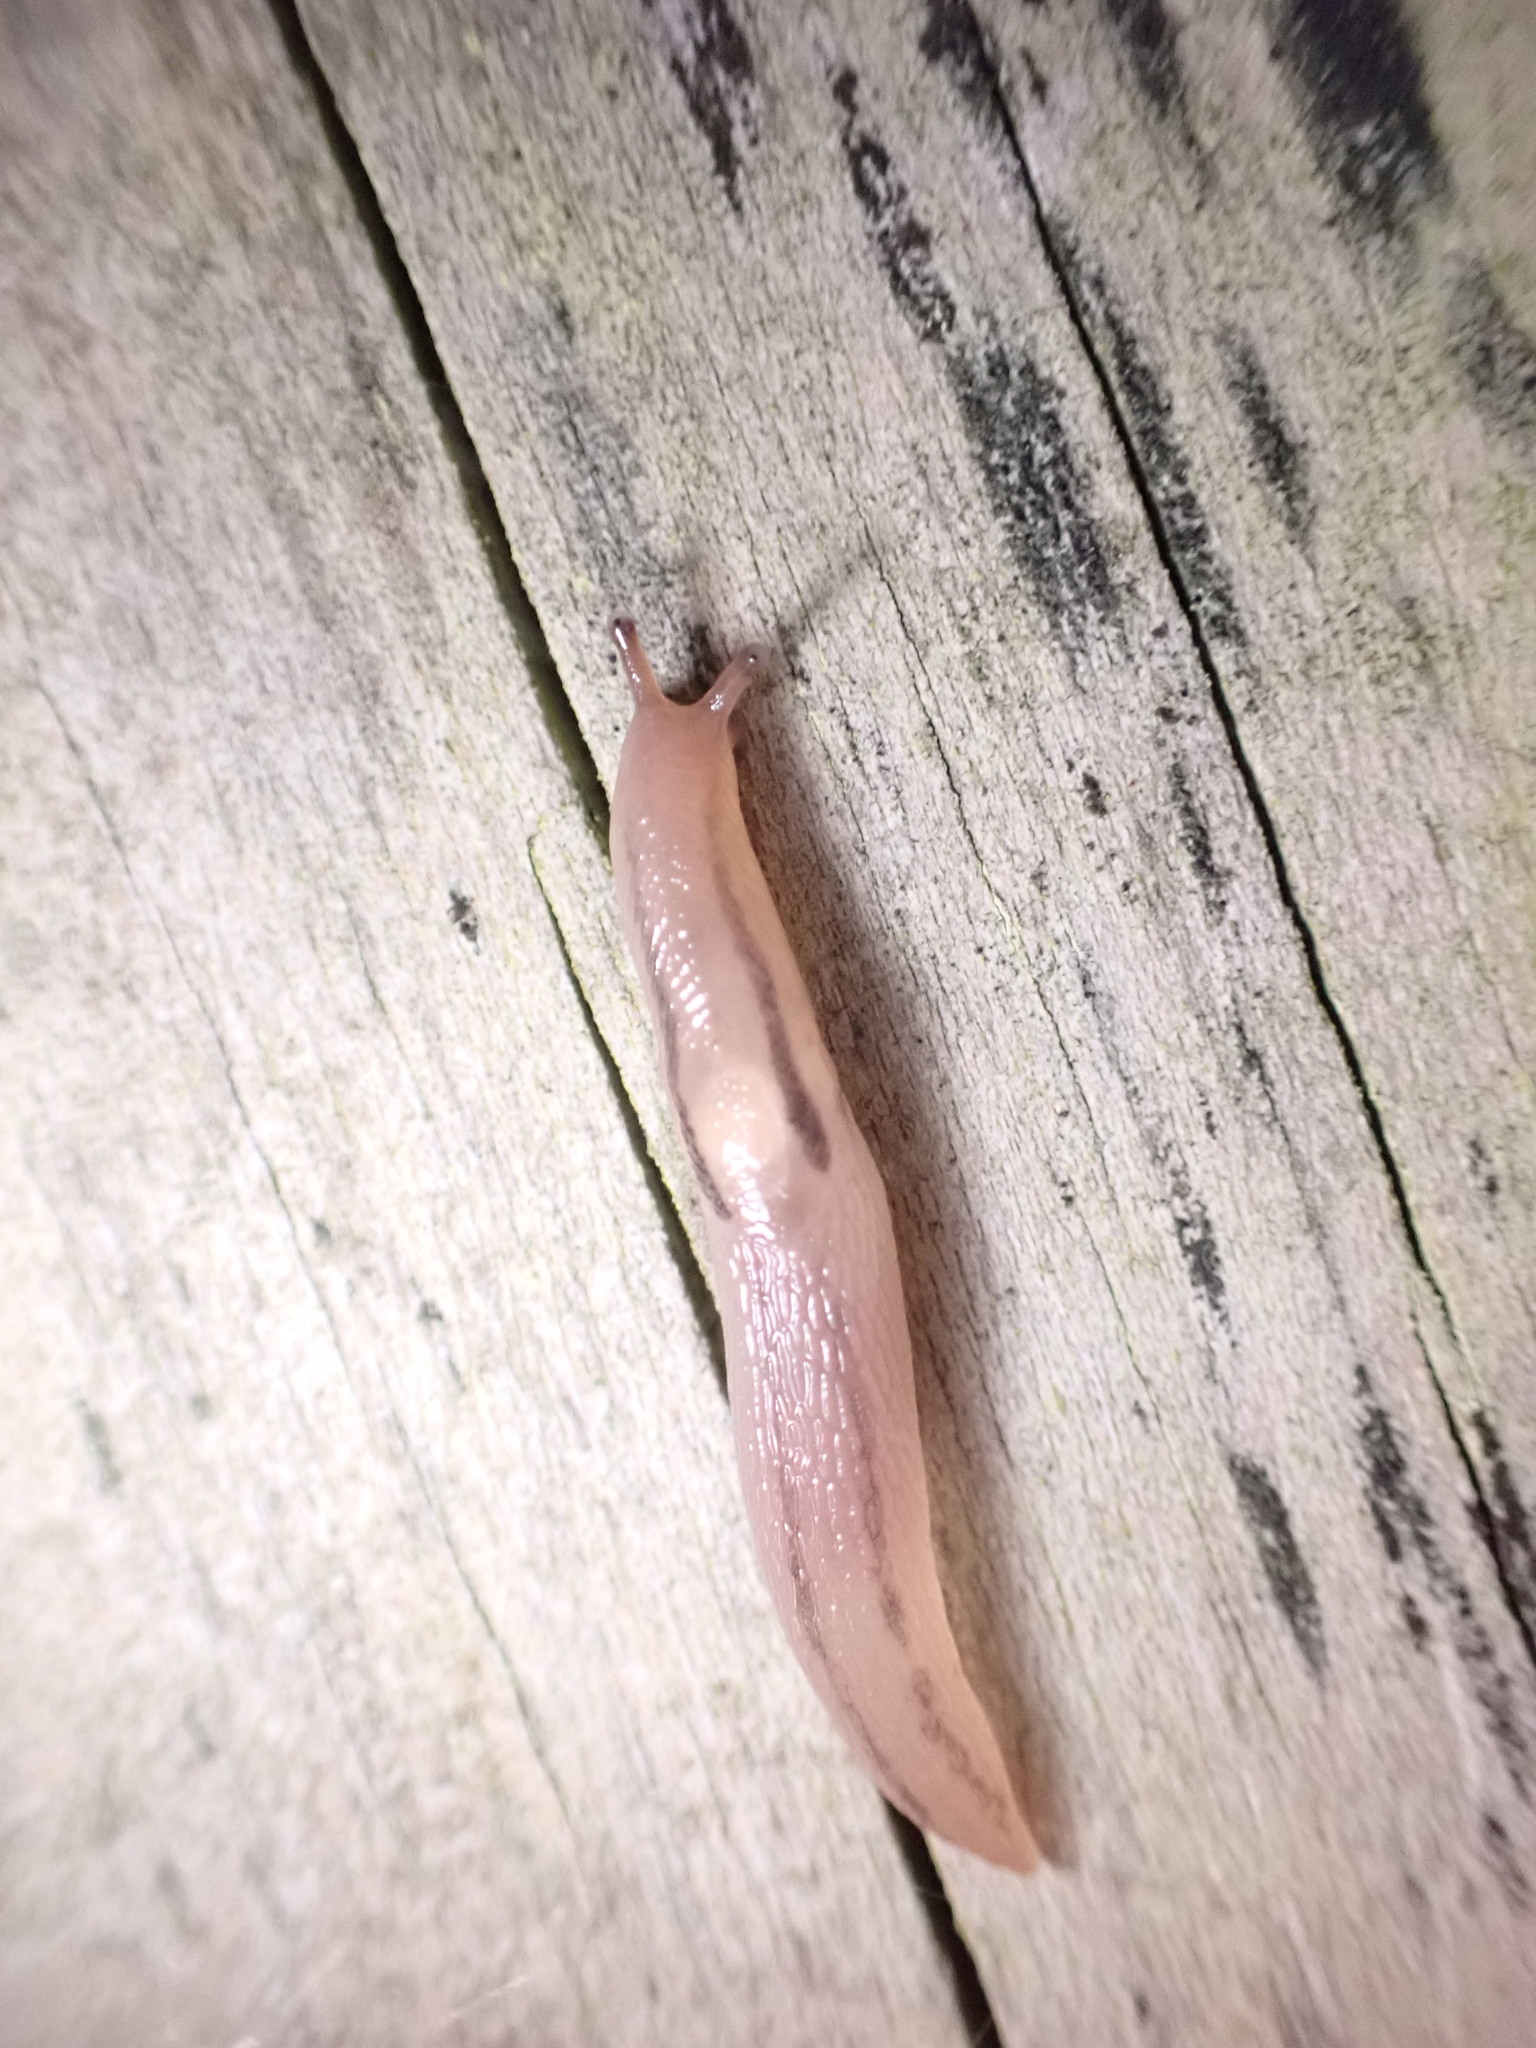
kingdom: Animalia
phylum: Mollusca
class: Gastropoda
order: Stylommatophora
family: Limacidae
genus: Ambigolimax
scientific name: Ambigolimax
